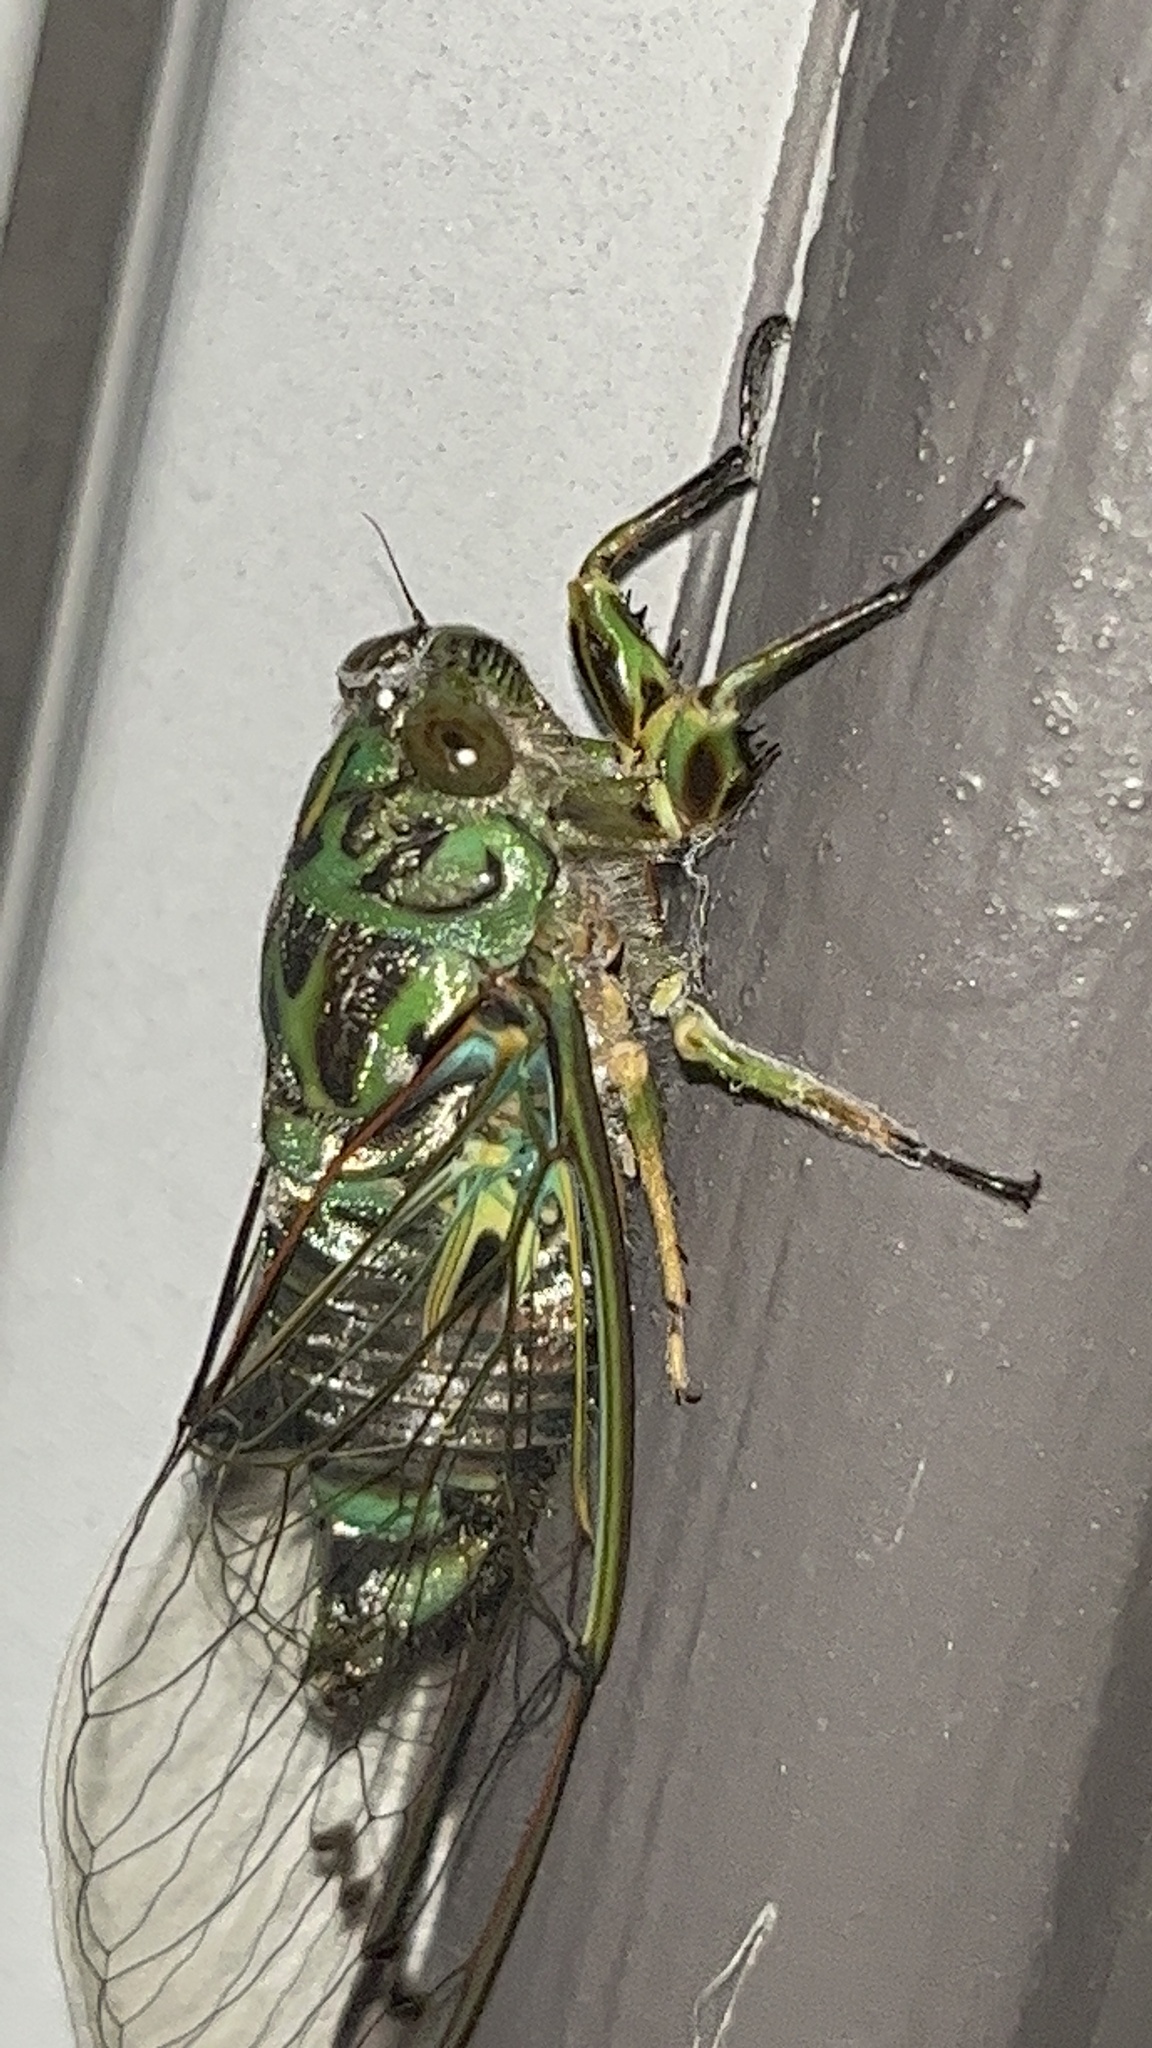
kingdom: Animalia
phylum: Arthropoda
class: Insecta
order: Hemiptera
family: Cicadidae
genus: Amphipsalta
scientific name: Amphipsalta zelandica
